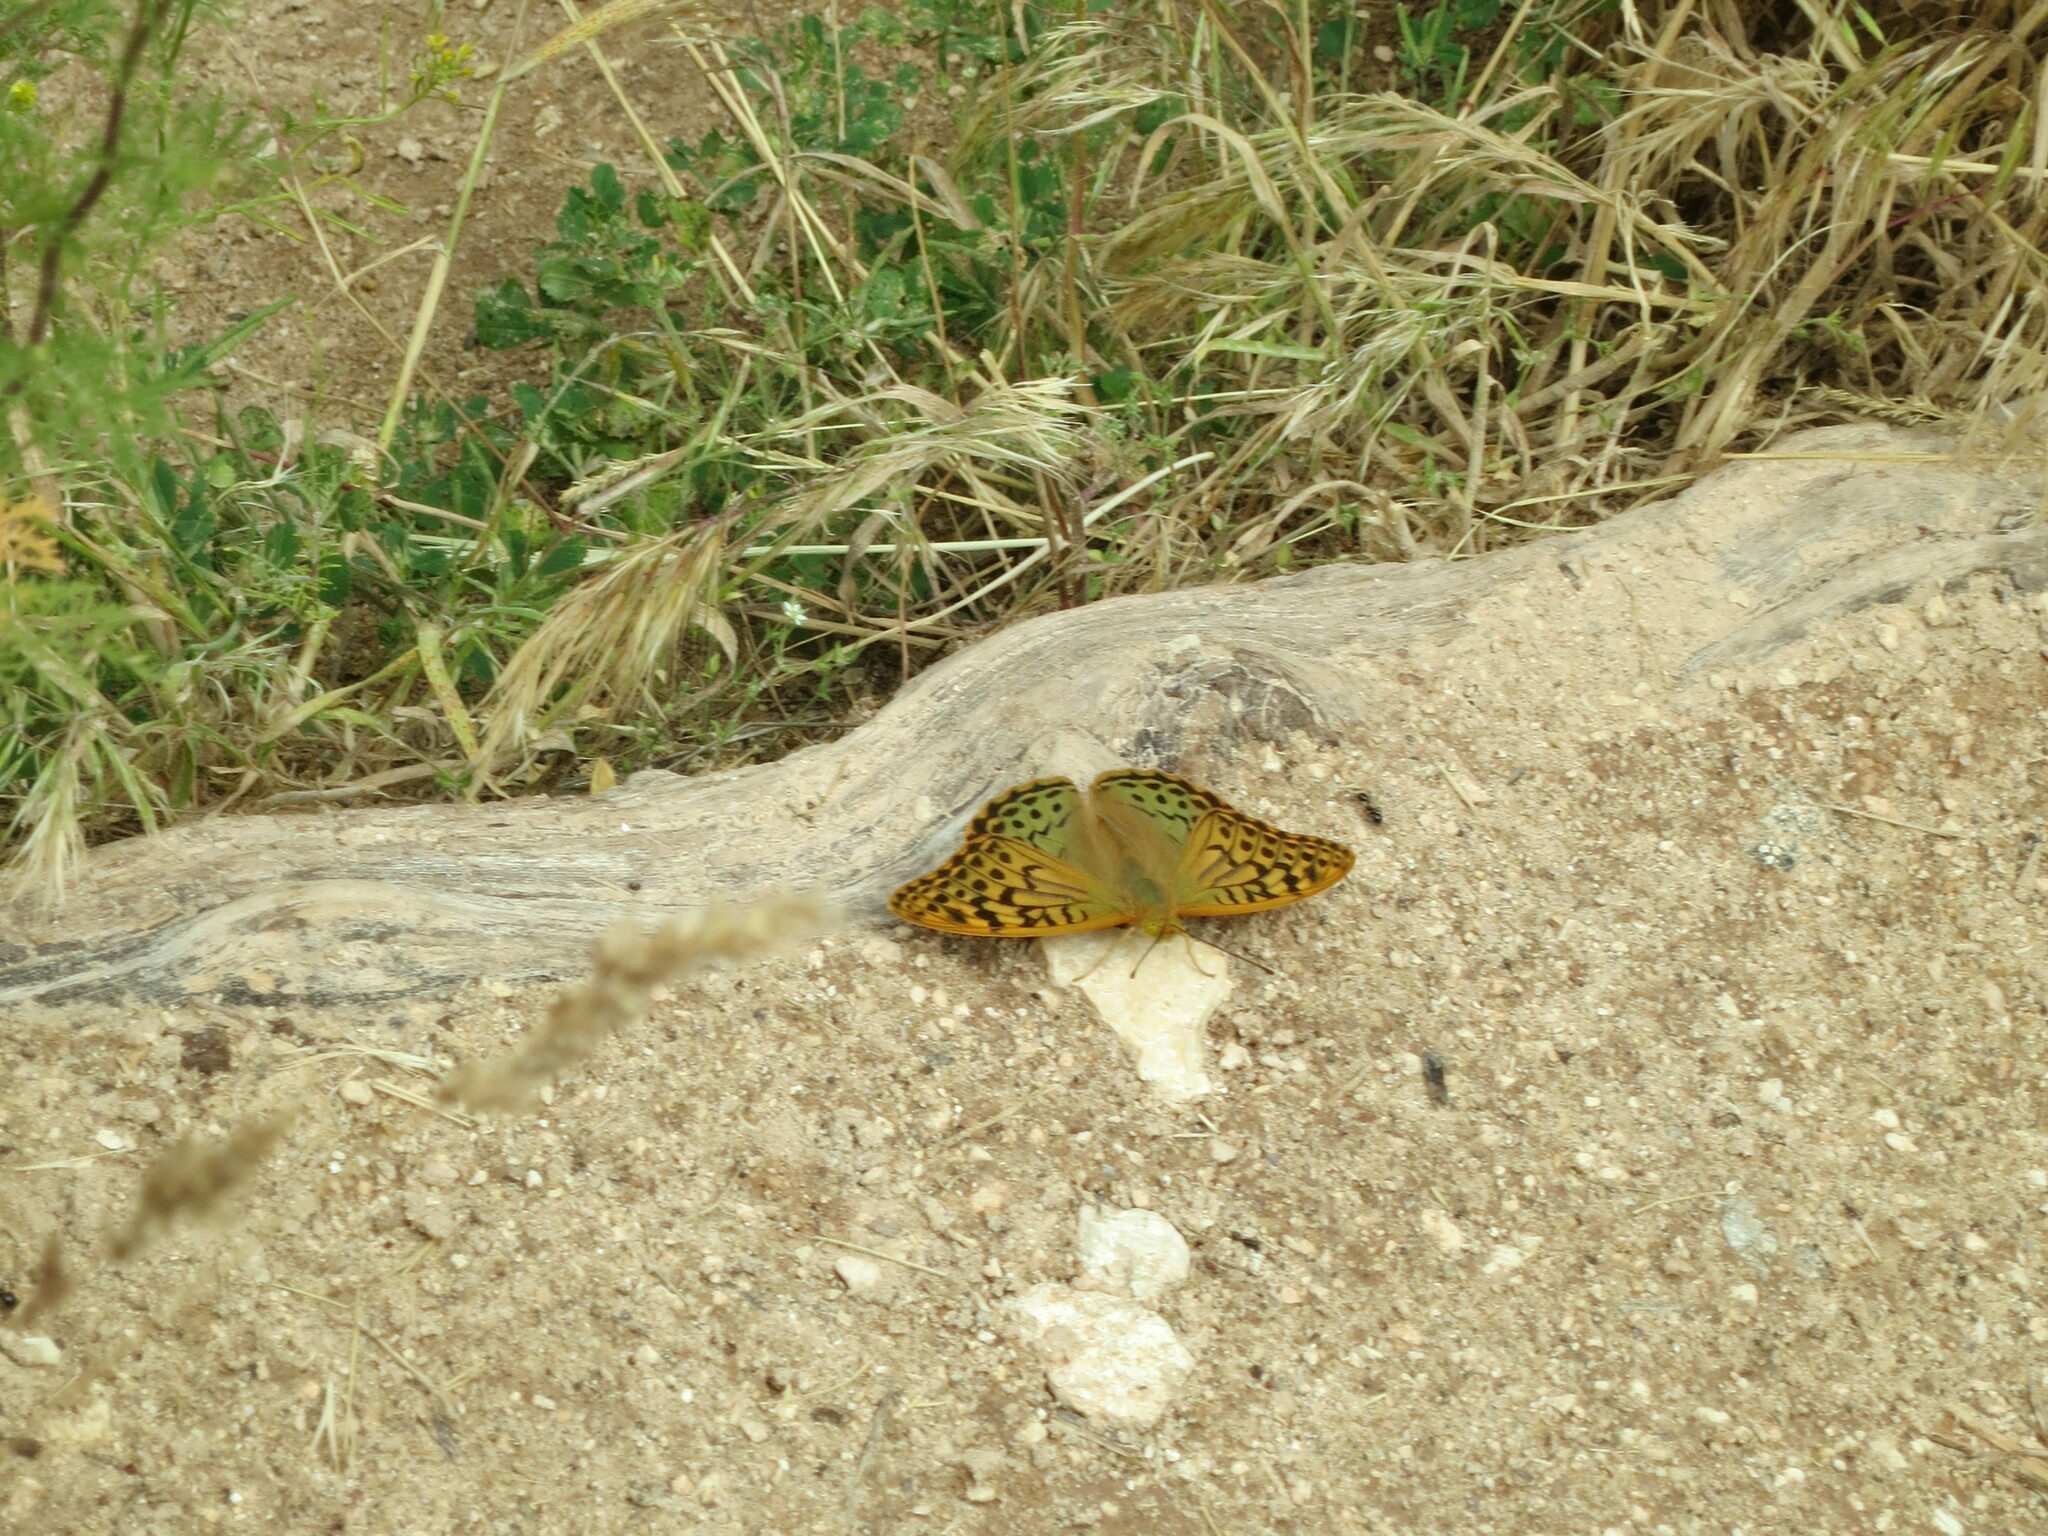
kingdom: Animalia
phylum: Arthropoda
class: Insecta
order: Lepidoptera
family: Nymphalidae
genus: Damora
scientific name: Damora pandora
